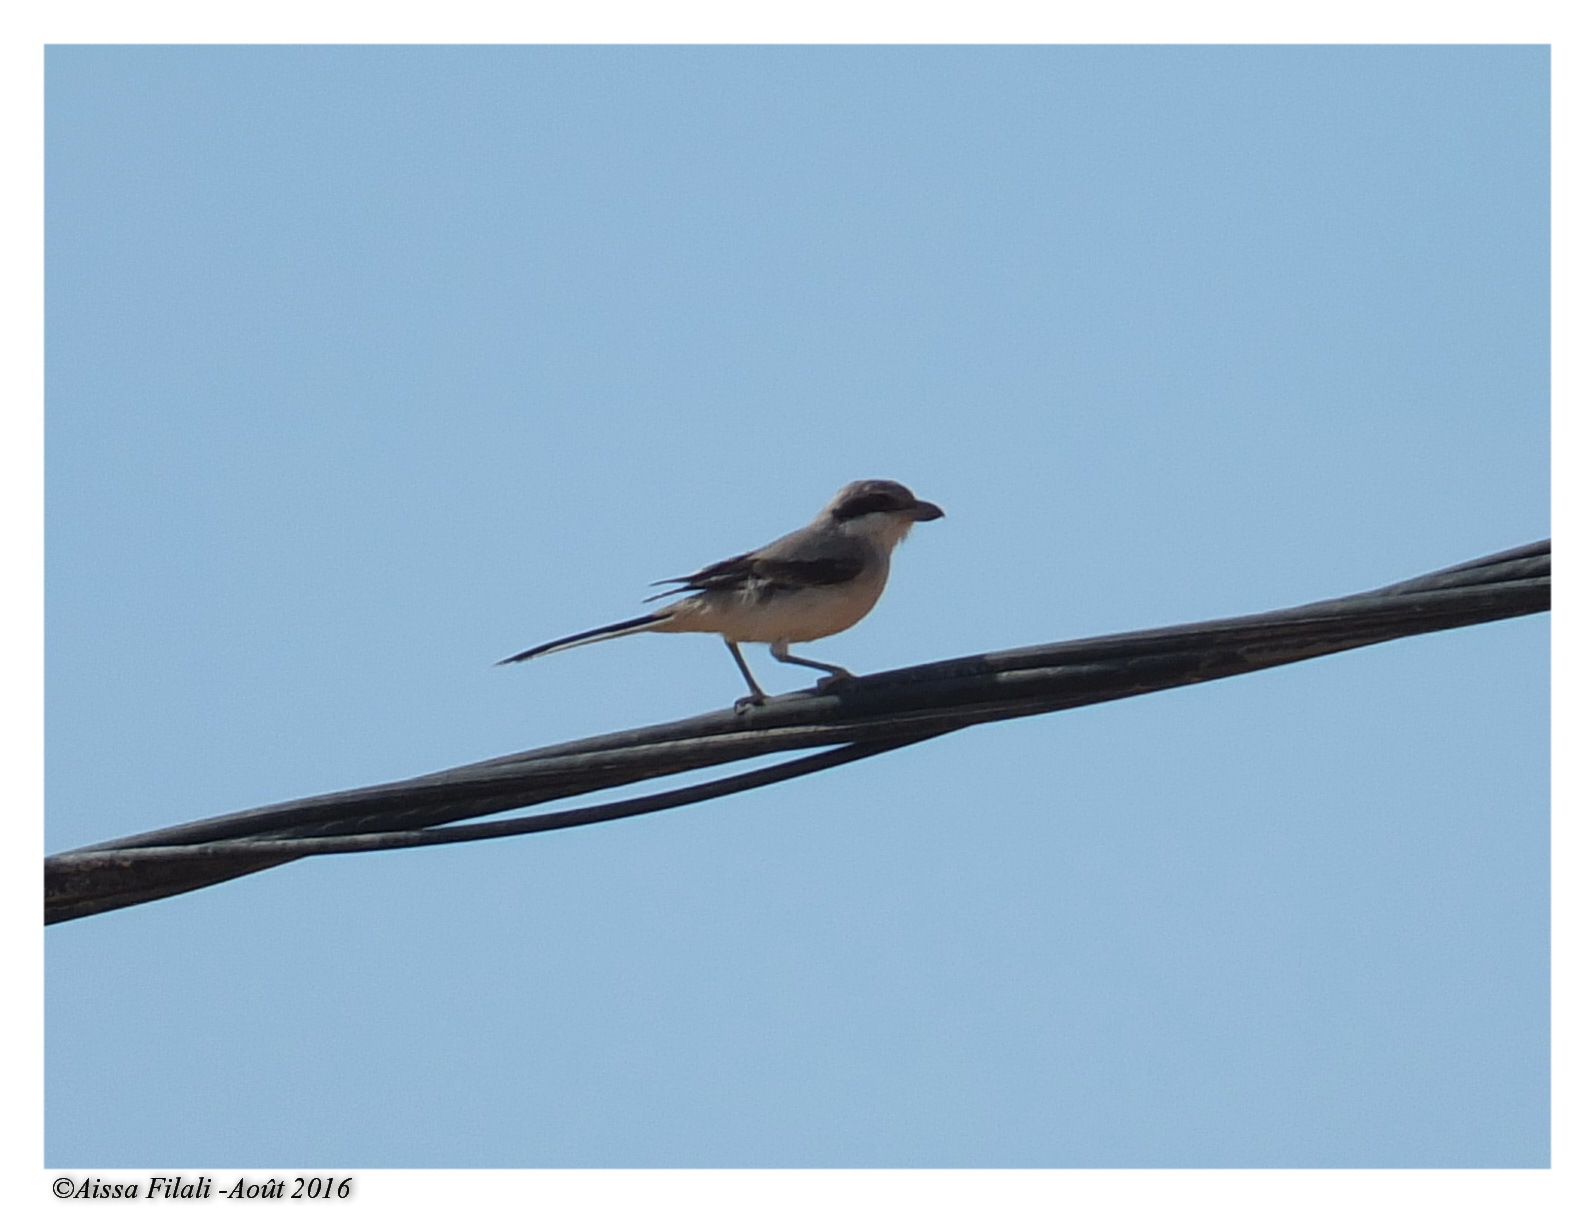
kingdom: Animalia
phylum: Chordata
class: Aves
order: Passeriformes
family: Laniidae
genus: Lanius
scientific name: Lanius excubitor
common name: Great grey shrike
